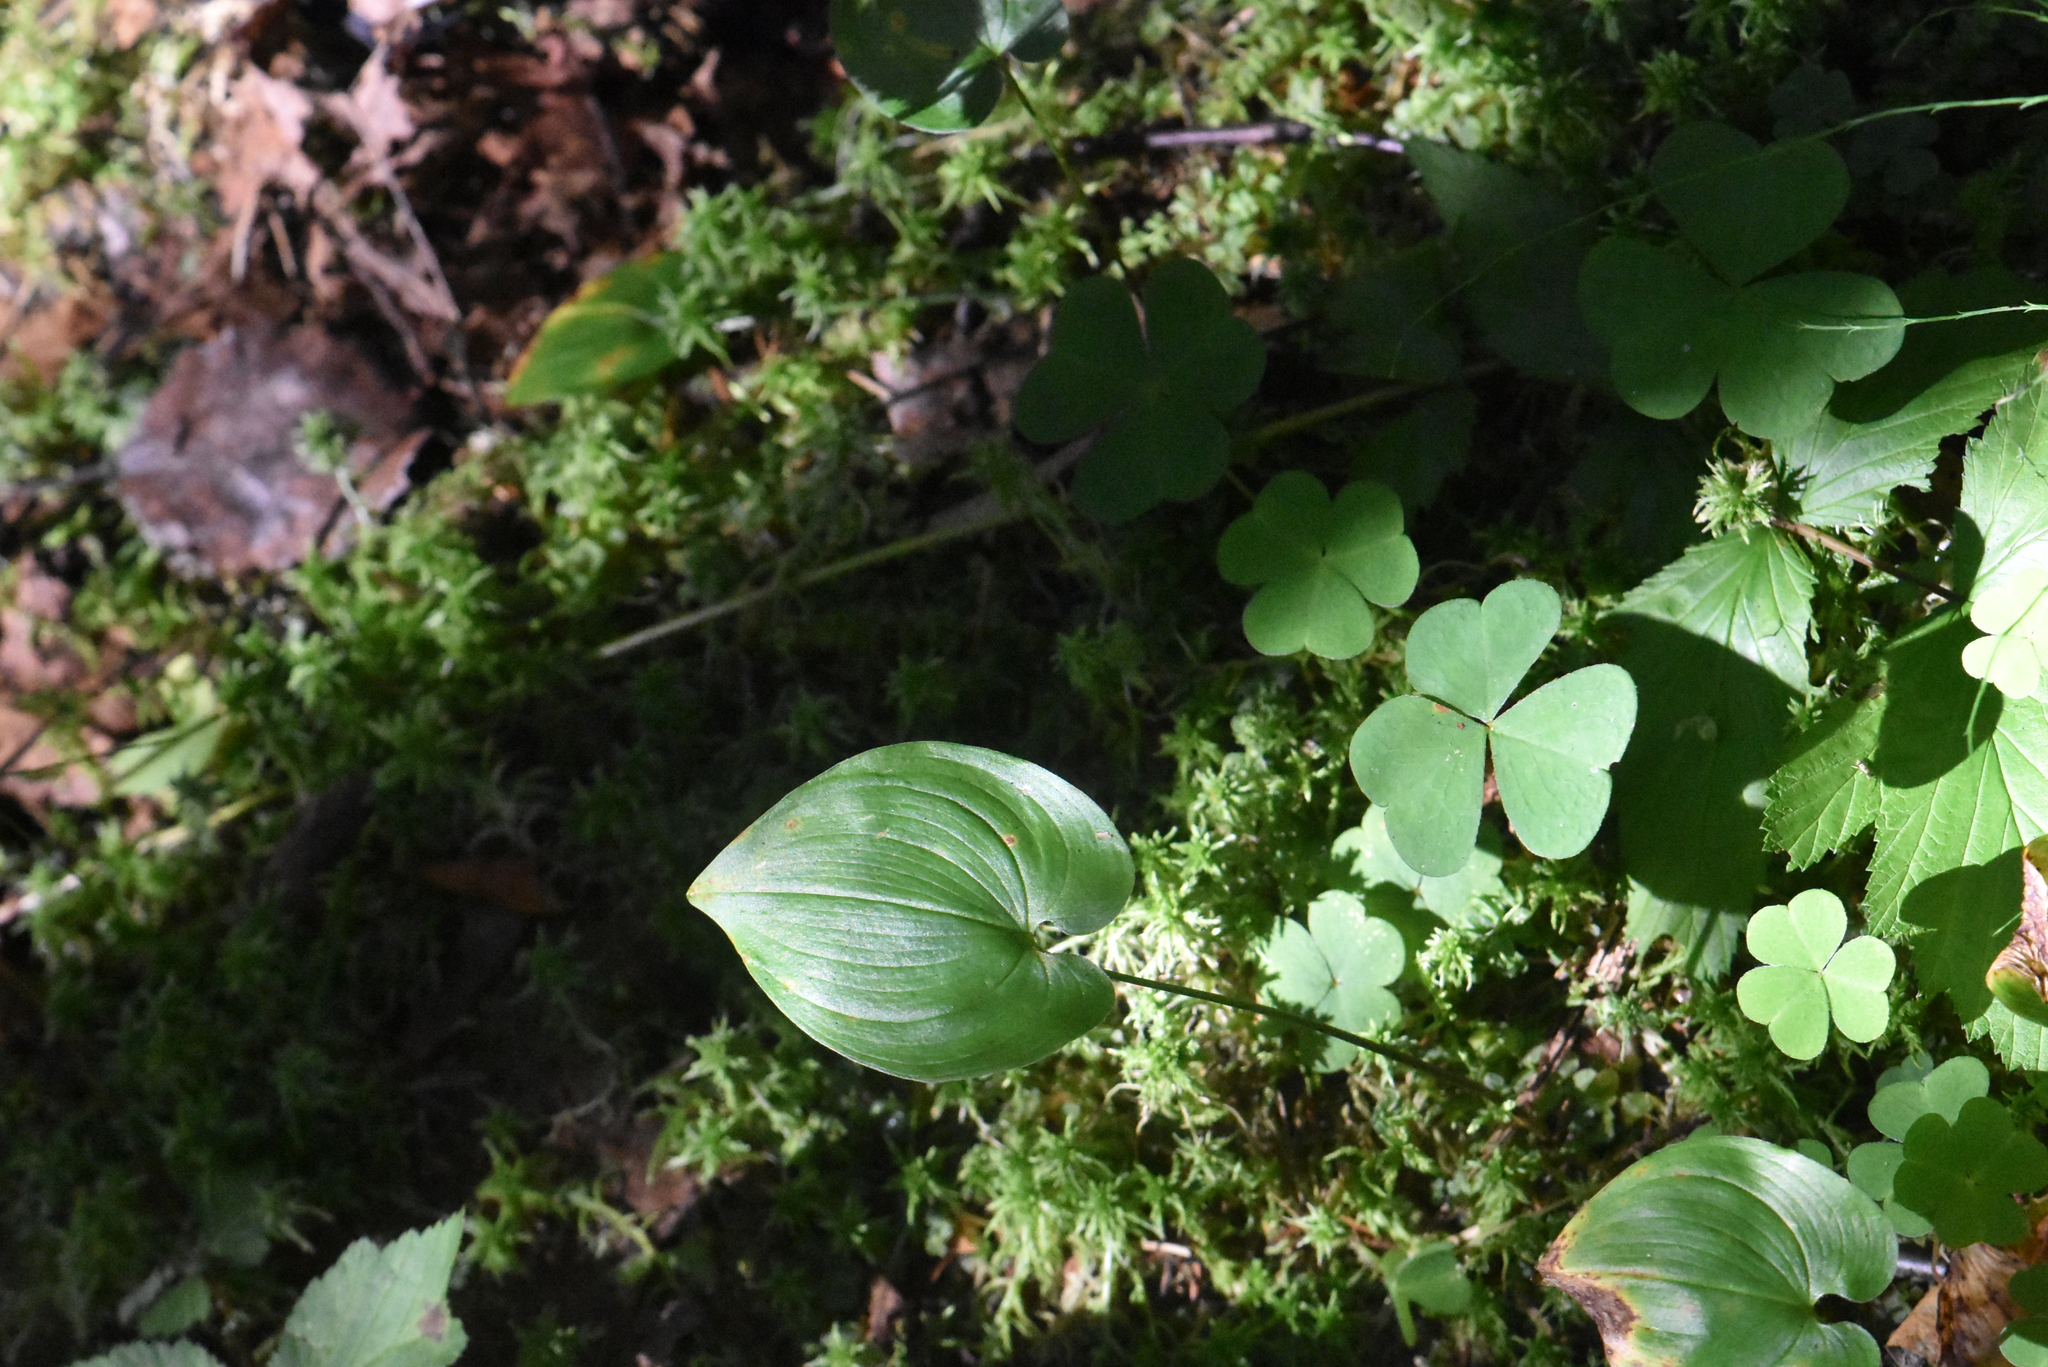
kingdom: Plantae
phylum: Tracheophyta
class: Liliopsida
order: Asparagales
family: Asparagaceae
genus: Maianthemum
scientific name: Maianthemum bifolium
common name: May lily
